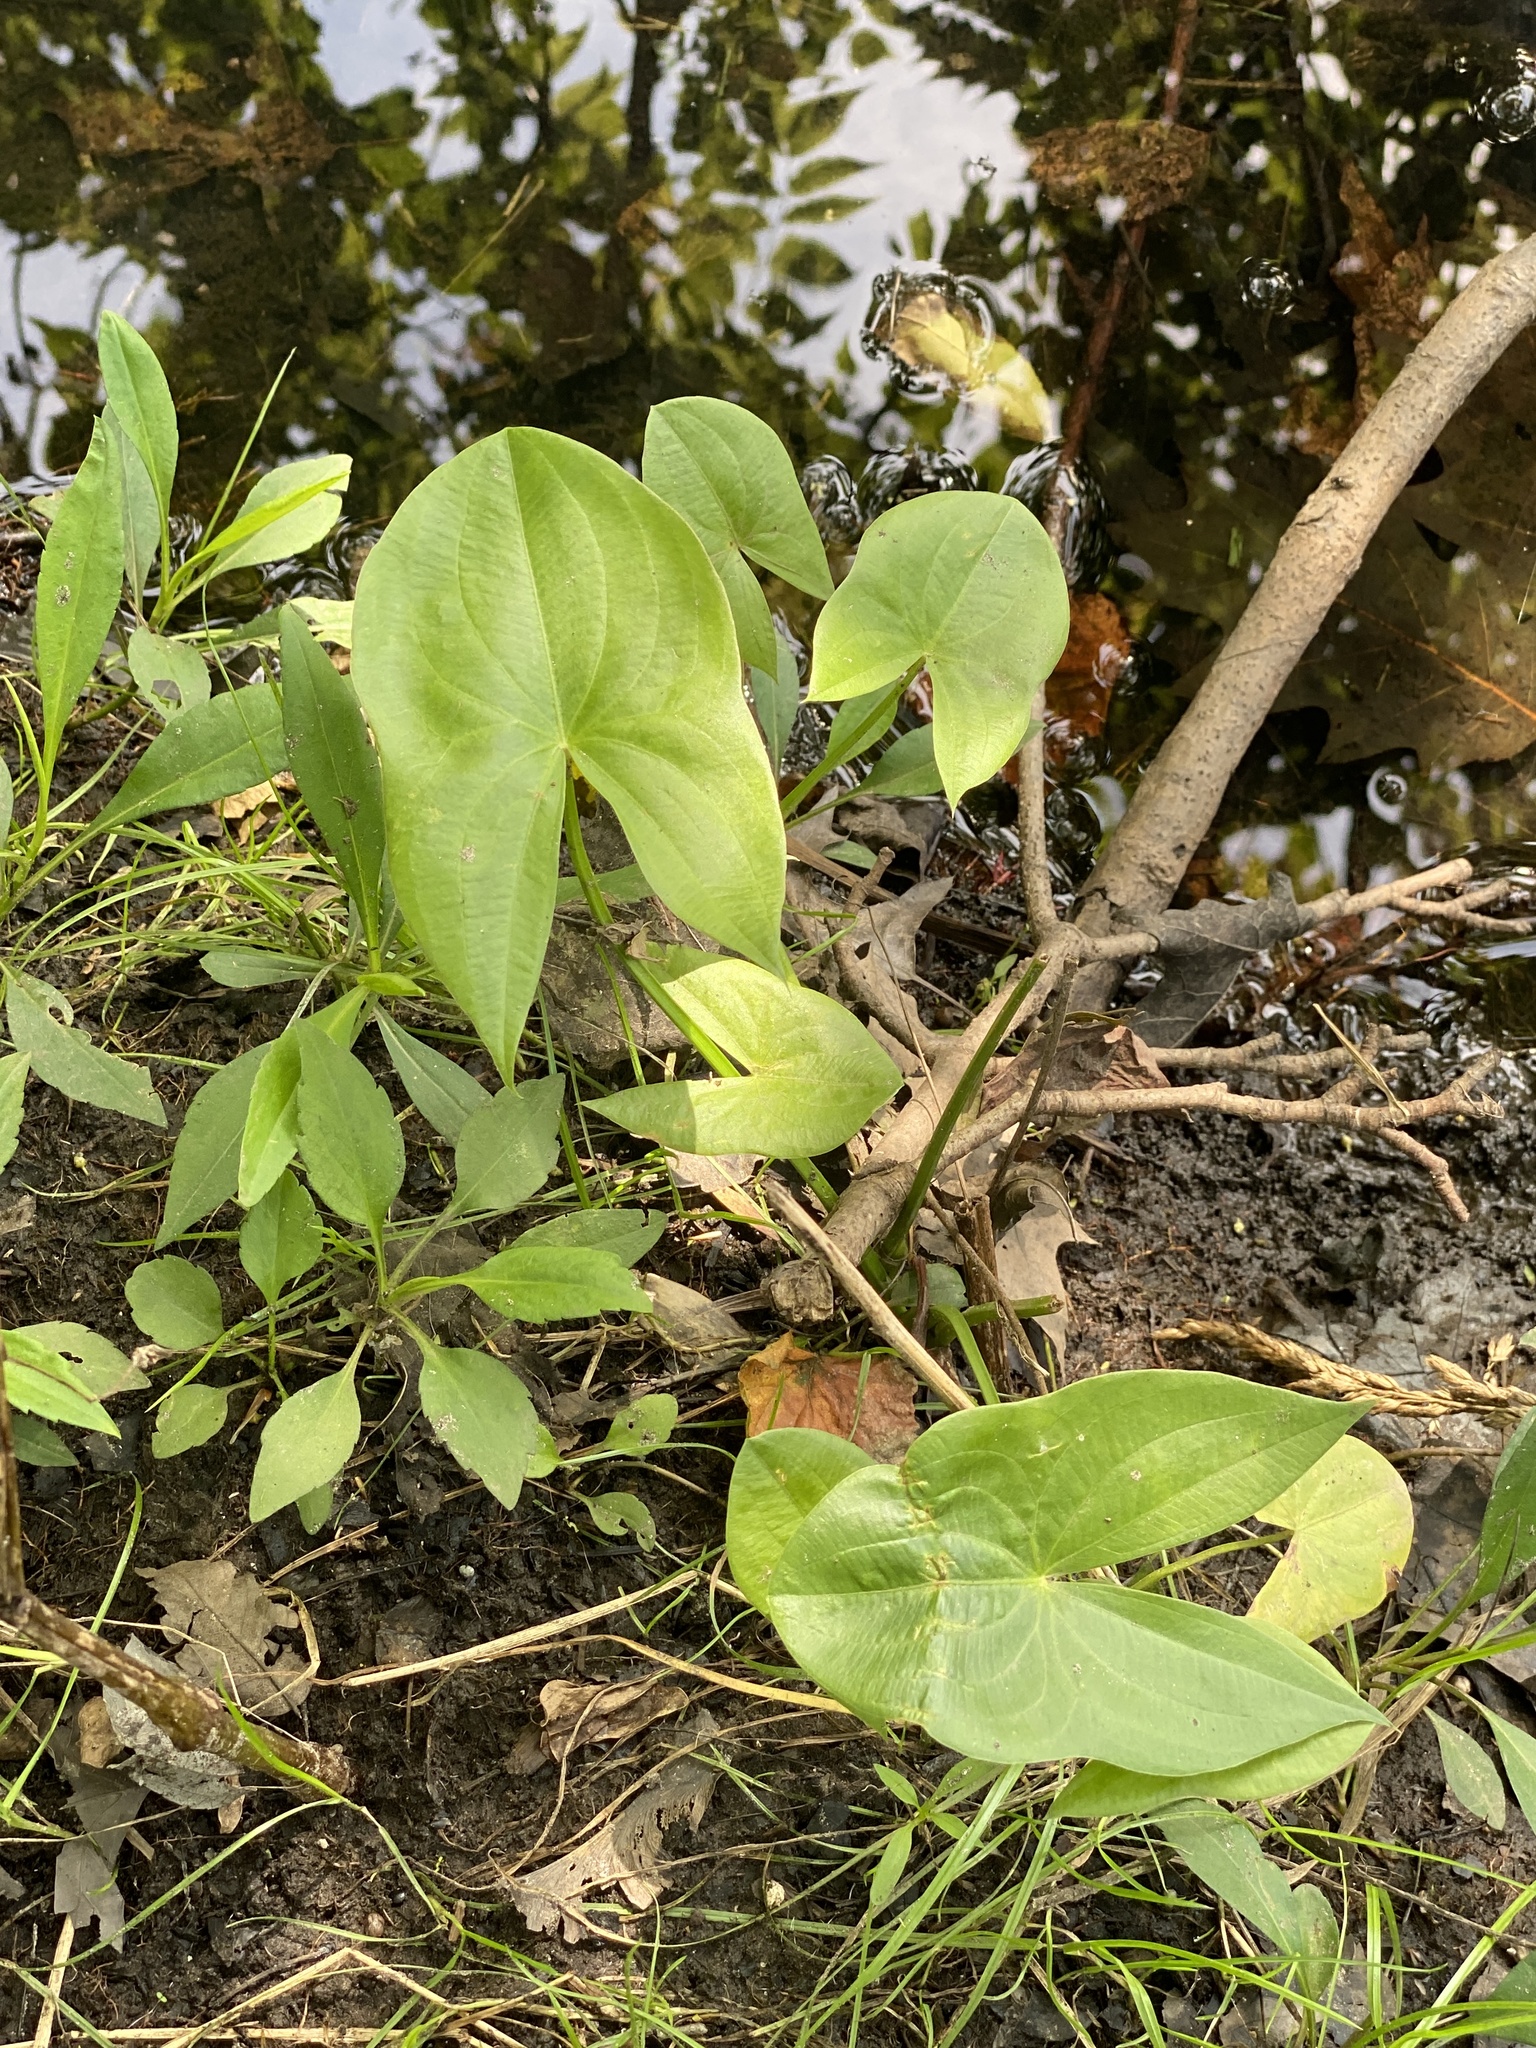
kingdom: Plantae
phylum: Tracheophyta
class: Liliopsida
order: Alismatales
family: Alismataceae
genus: Sagittaria
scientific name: Sagittaria latifolia
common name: Duck-potato
